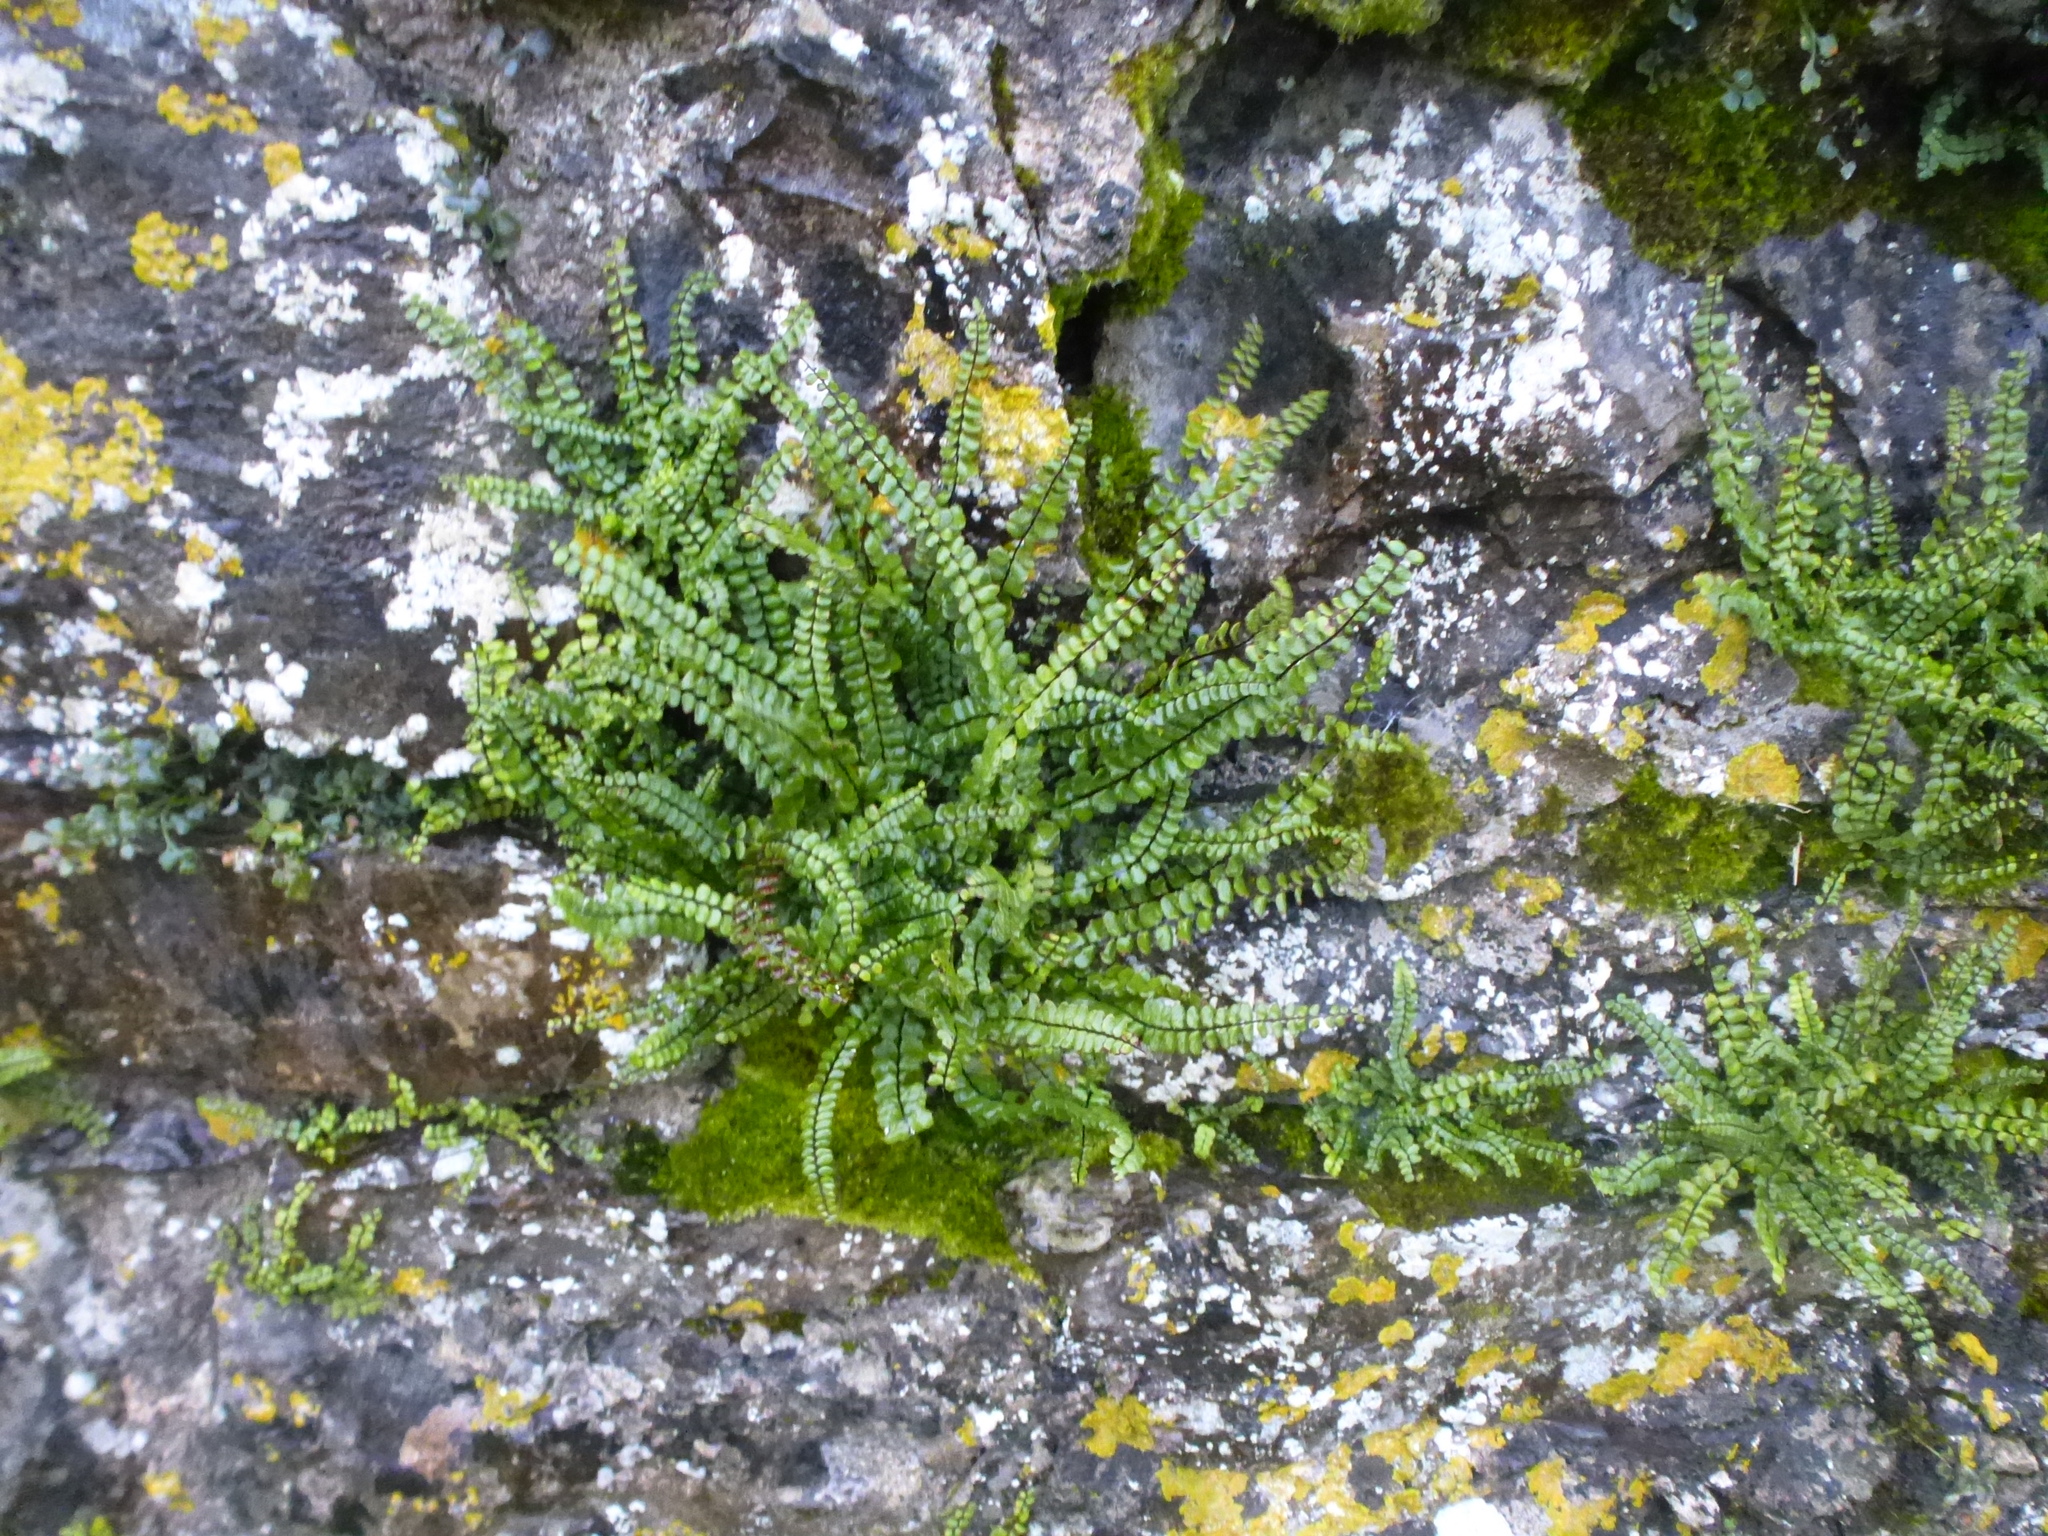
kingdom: Plantae
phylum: Tracheophyta
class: Polypodiopsida
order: Polypodiales
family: Aspleniaceae
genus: Asplenium
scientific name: Asplenium trichomanes
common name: Maidenhair spleenwort
